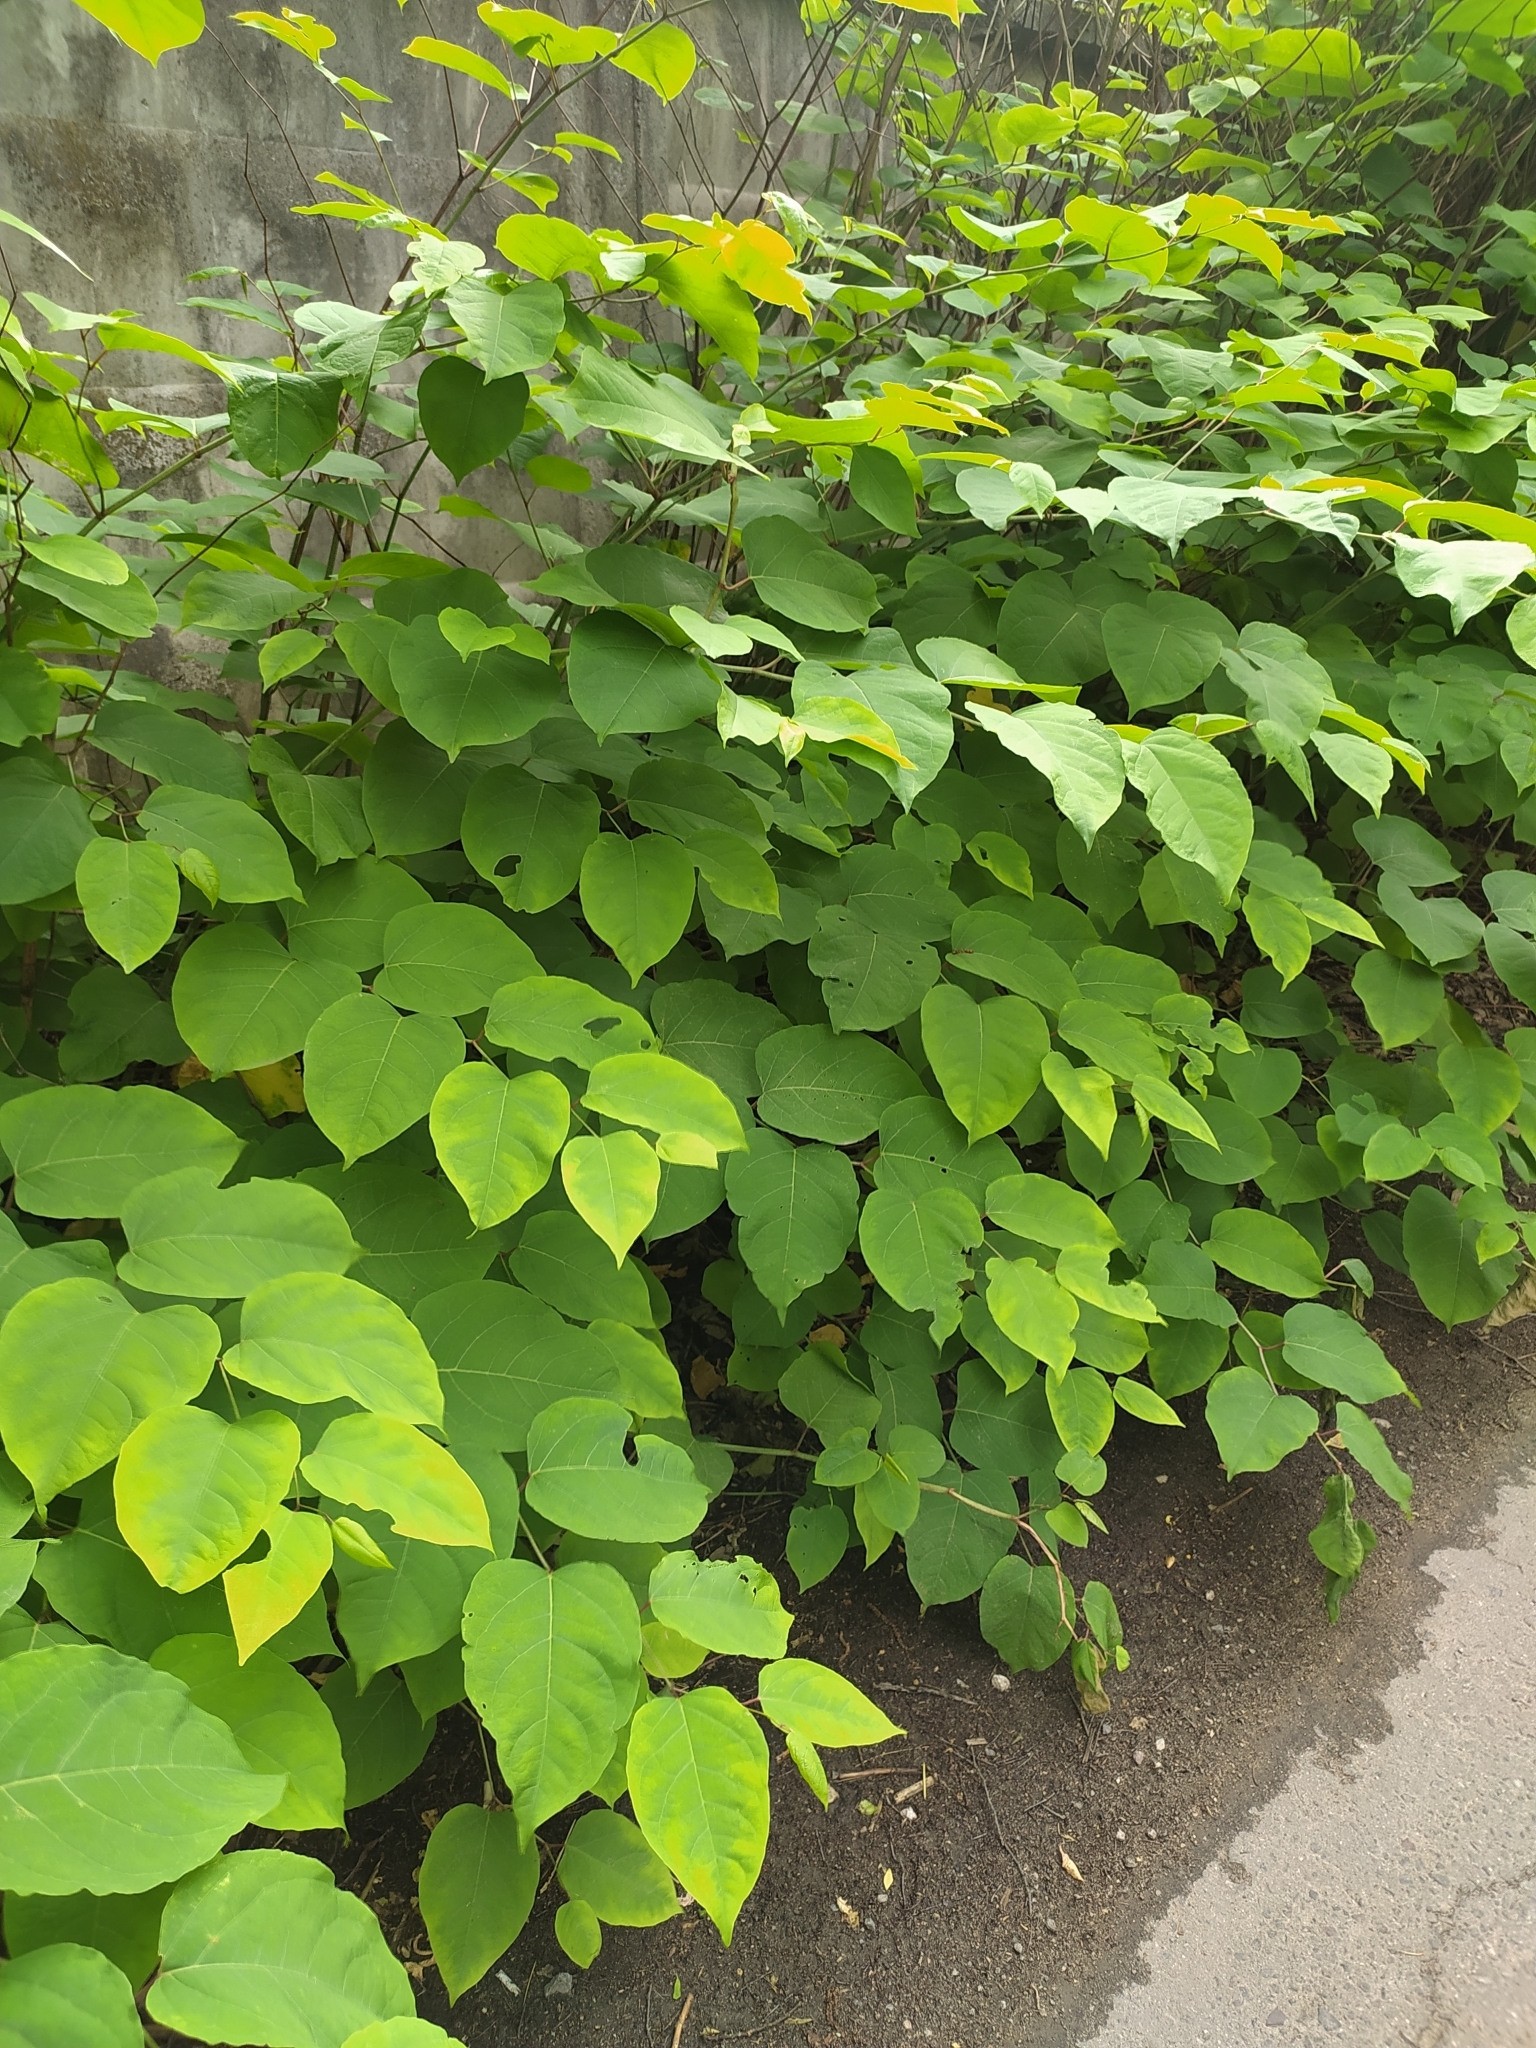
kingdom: Plantae
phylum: Tracheophyta
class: Magnoliopsida
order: Caryophyllales
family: Polygonaceae
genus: Reynoutria
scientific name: Reynoutria bohemica
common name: Bohemian knotweed
